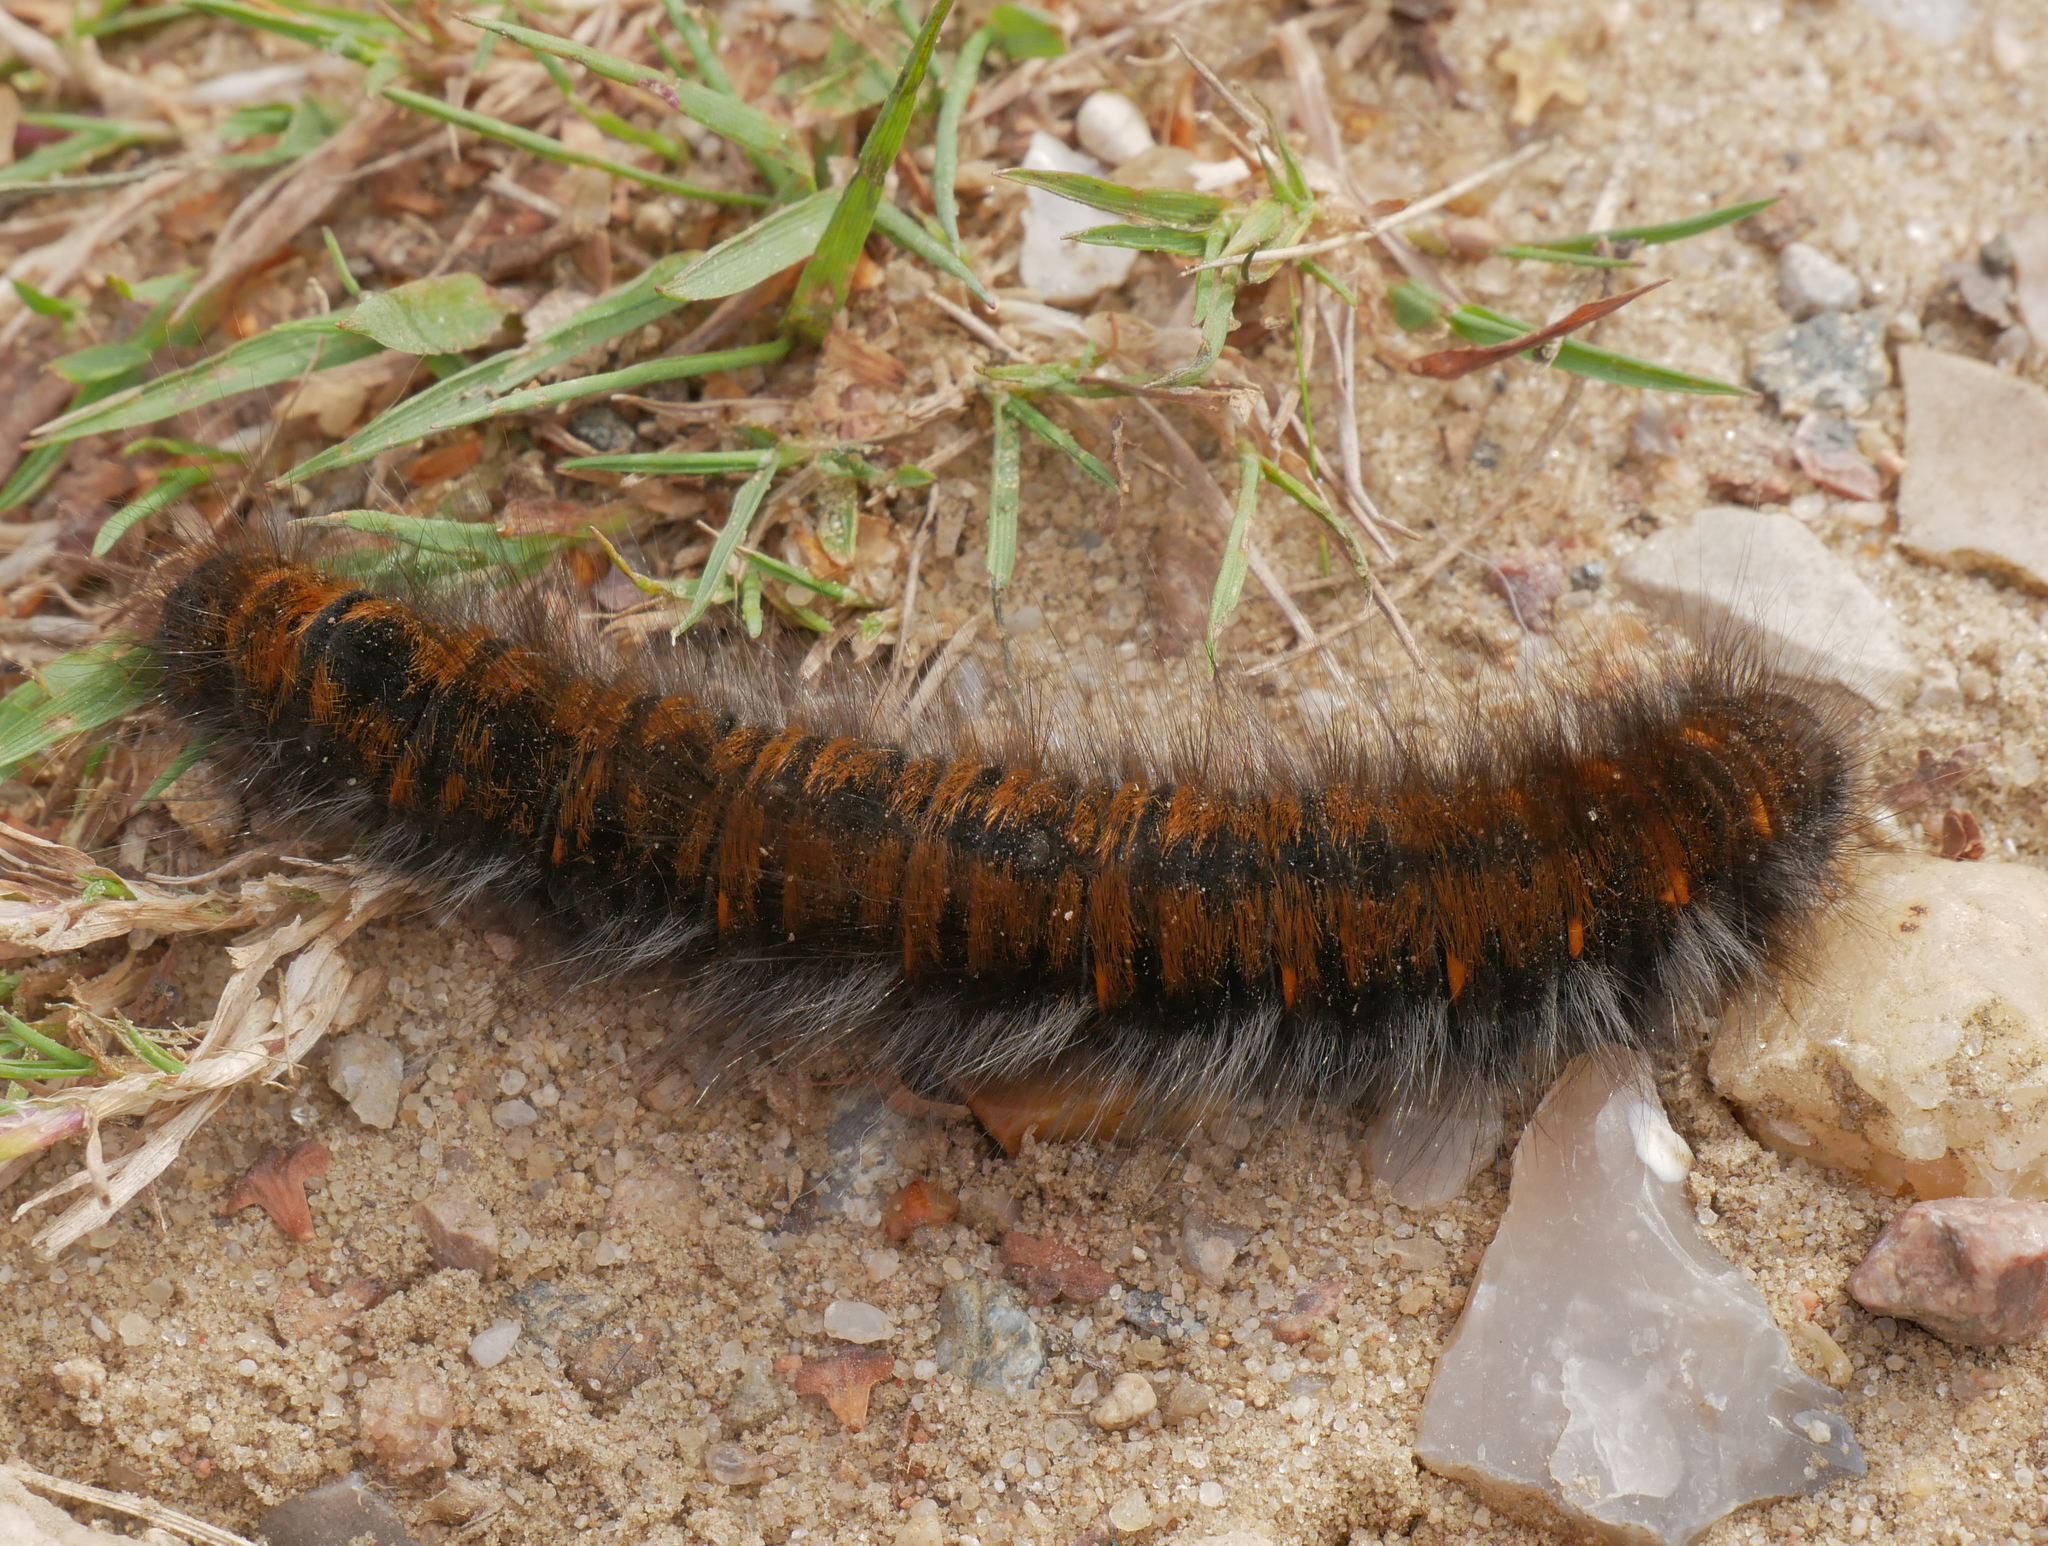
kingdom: Animalia
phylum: Arthropoda
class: Insecta
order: Lepidoptera
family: Lasiocampidae
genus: Macrothylacia
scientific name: Macrothylacia rubi
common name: Fox moth
